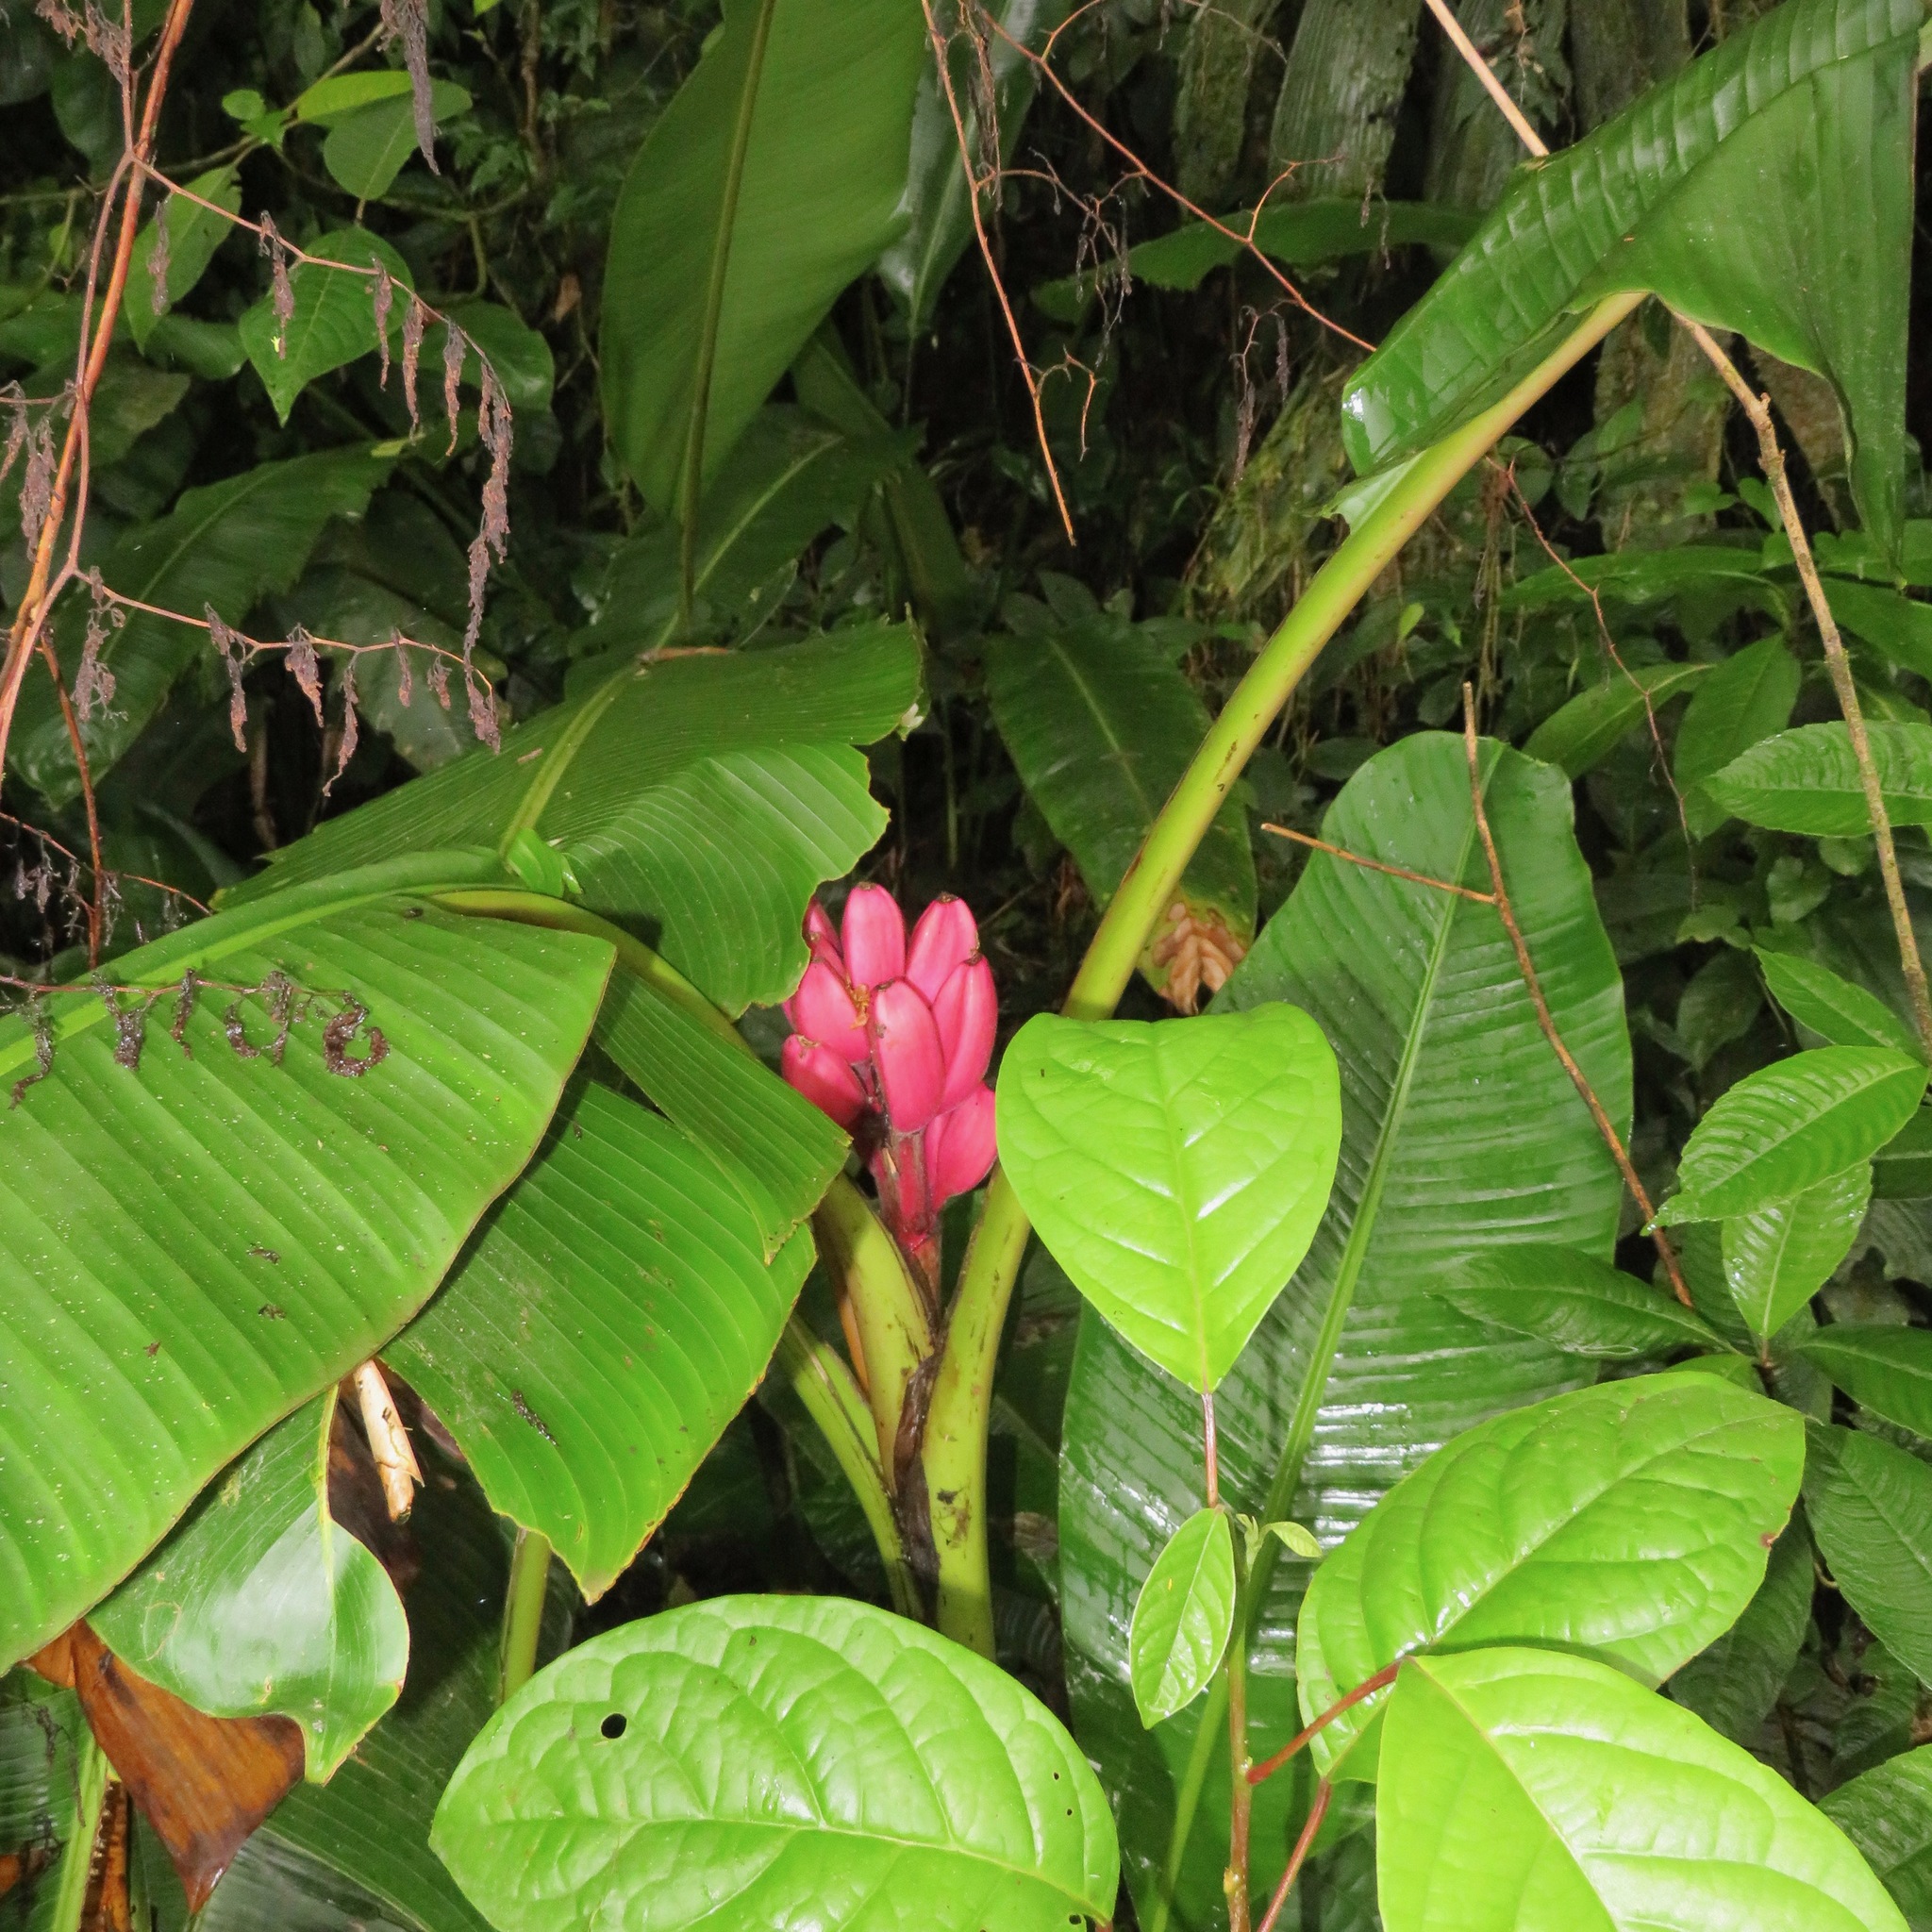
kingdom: Plantae
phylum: Tracheophyta
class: Liliopsida
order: Zingiberales
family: Musaceae
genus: Musa
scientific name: Musa velutina
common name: Pink velvet banana
